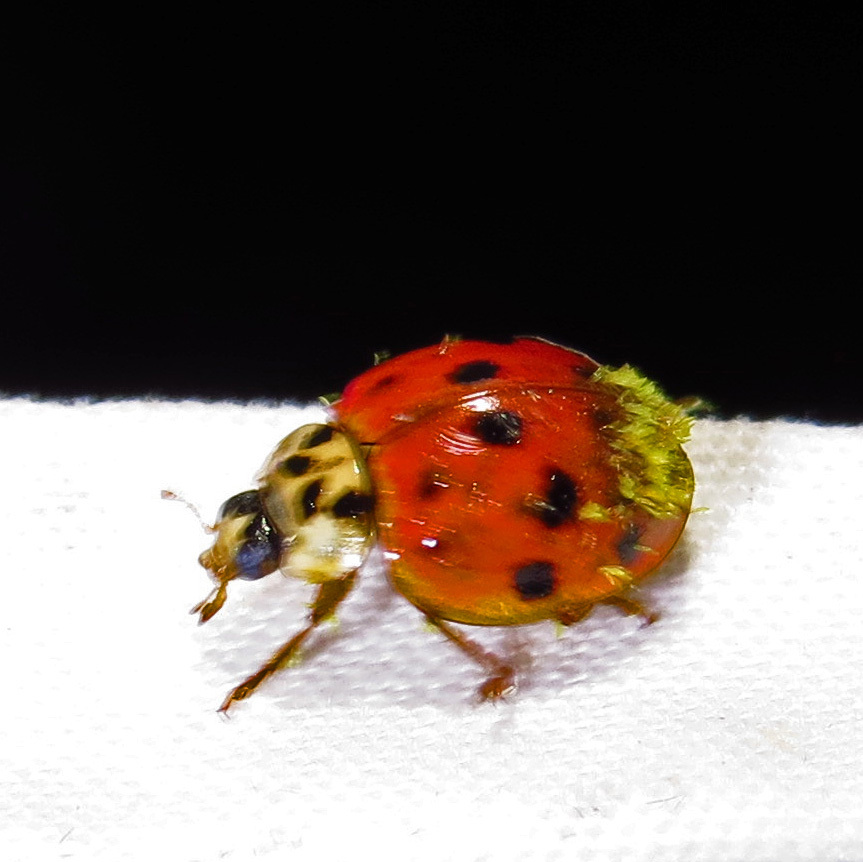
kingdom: Fungi
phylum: Ascomycota
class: Laboulbeniomycetes
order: Laboulbeniales
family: Laboulbeniaceae
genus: Hesperomyces
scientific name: Hesperomyces harmoniae
